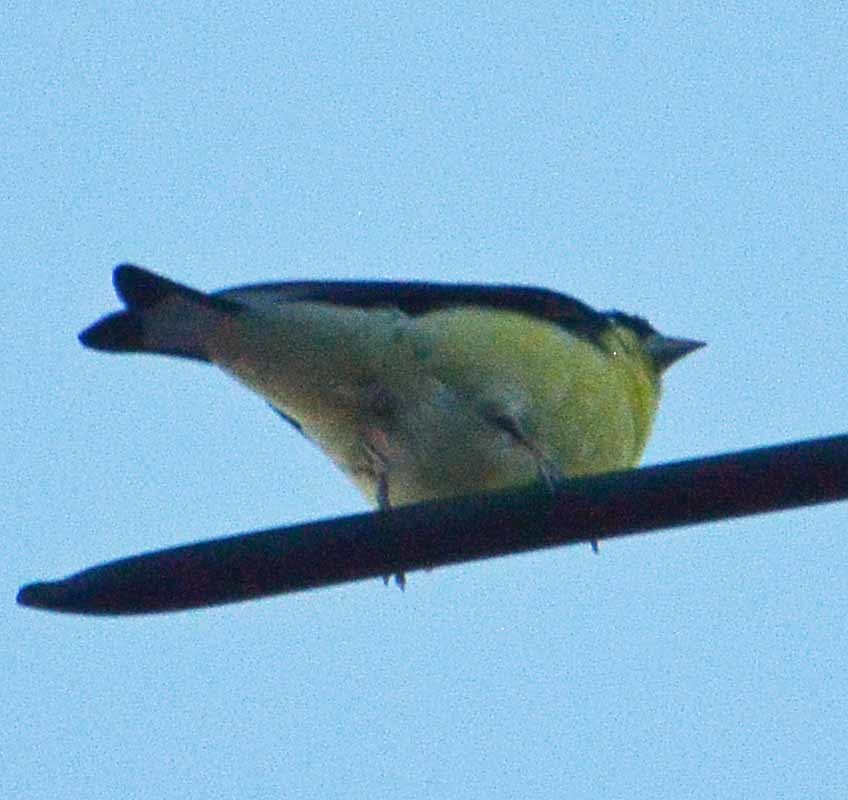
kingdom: Animalia
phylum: Chordata
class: Aves
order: Passeriformes
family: Fringillidae
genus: Spinus
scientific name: Spinus psaltria
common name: Lesser goldfinch
